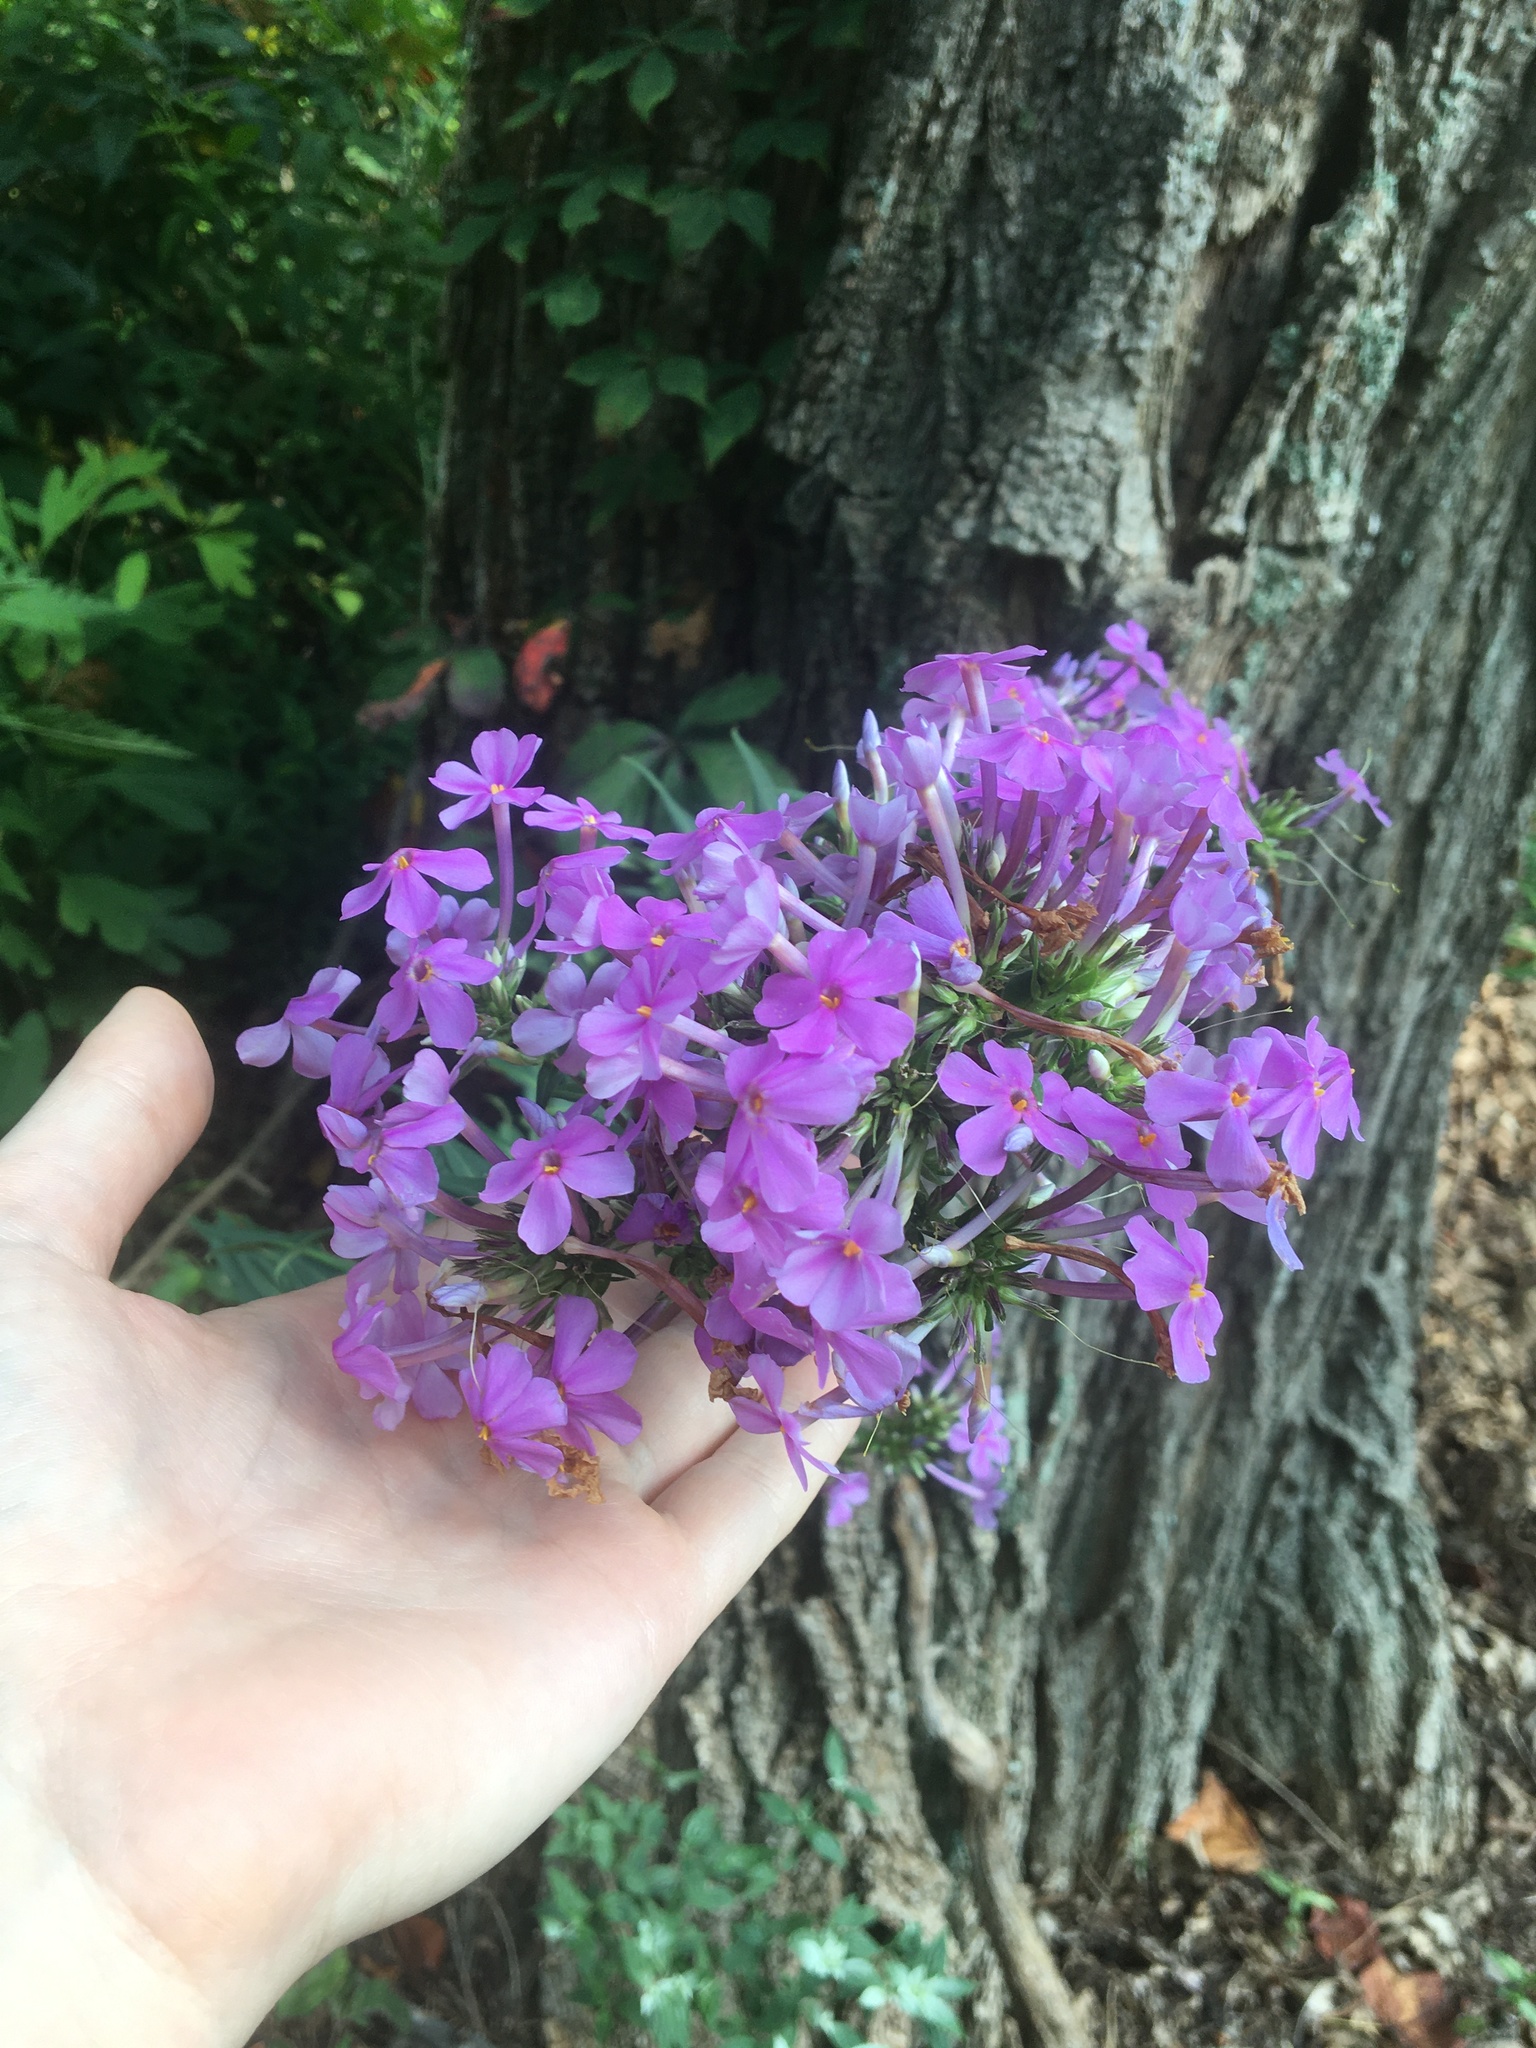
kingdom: Plantae
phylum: Tracheophyta
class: Magnoliopsida
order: Ericales
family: Polemoniaceae
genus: Phlox
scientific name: Phlox carolina
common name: Thick-leaf phlox
